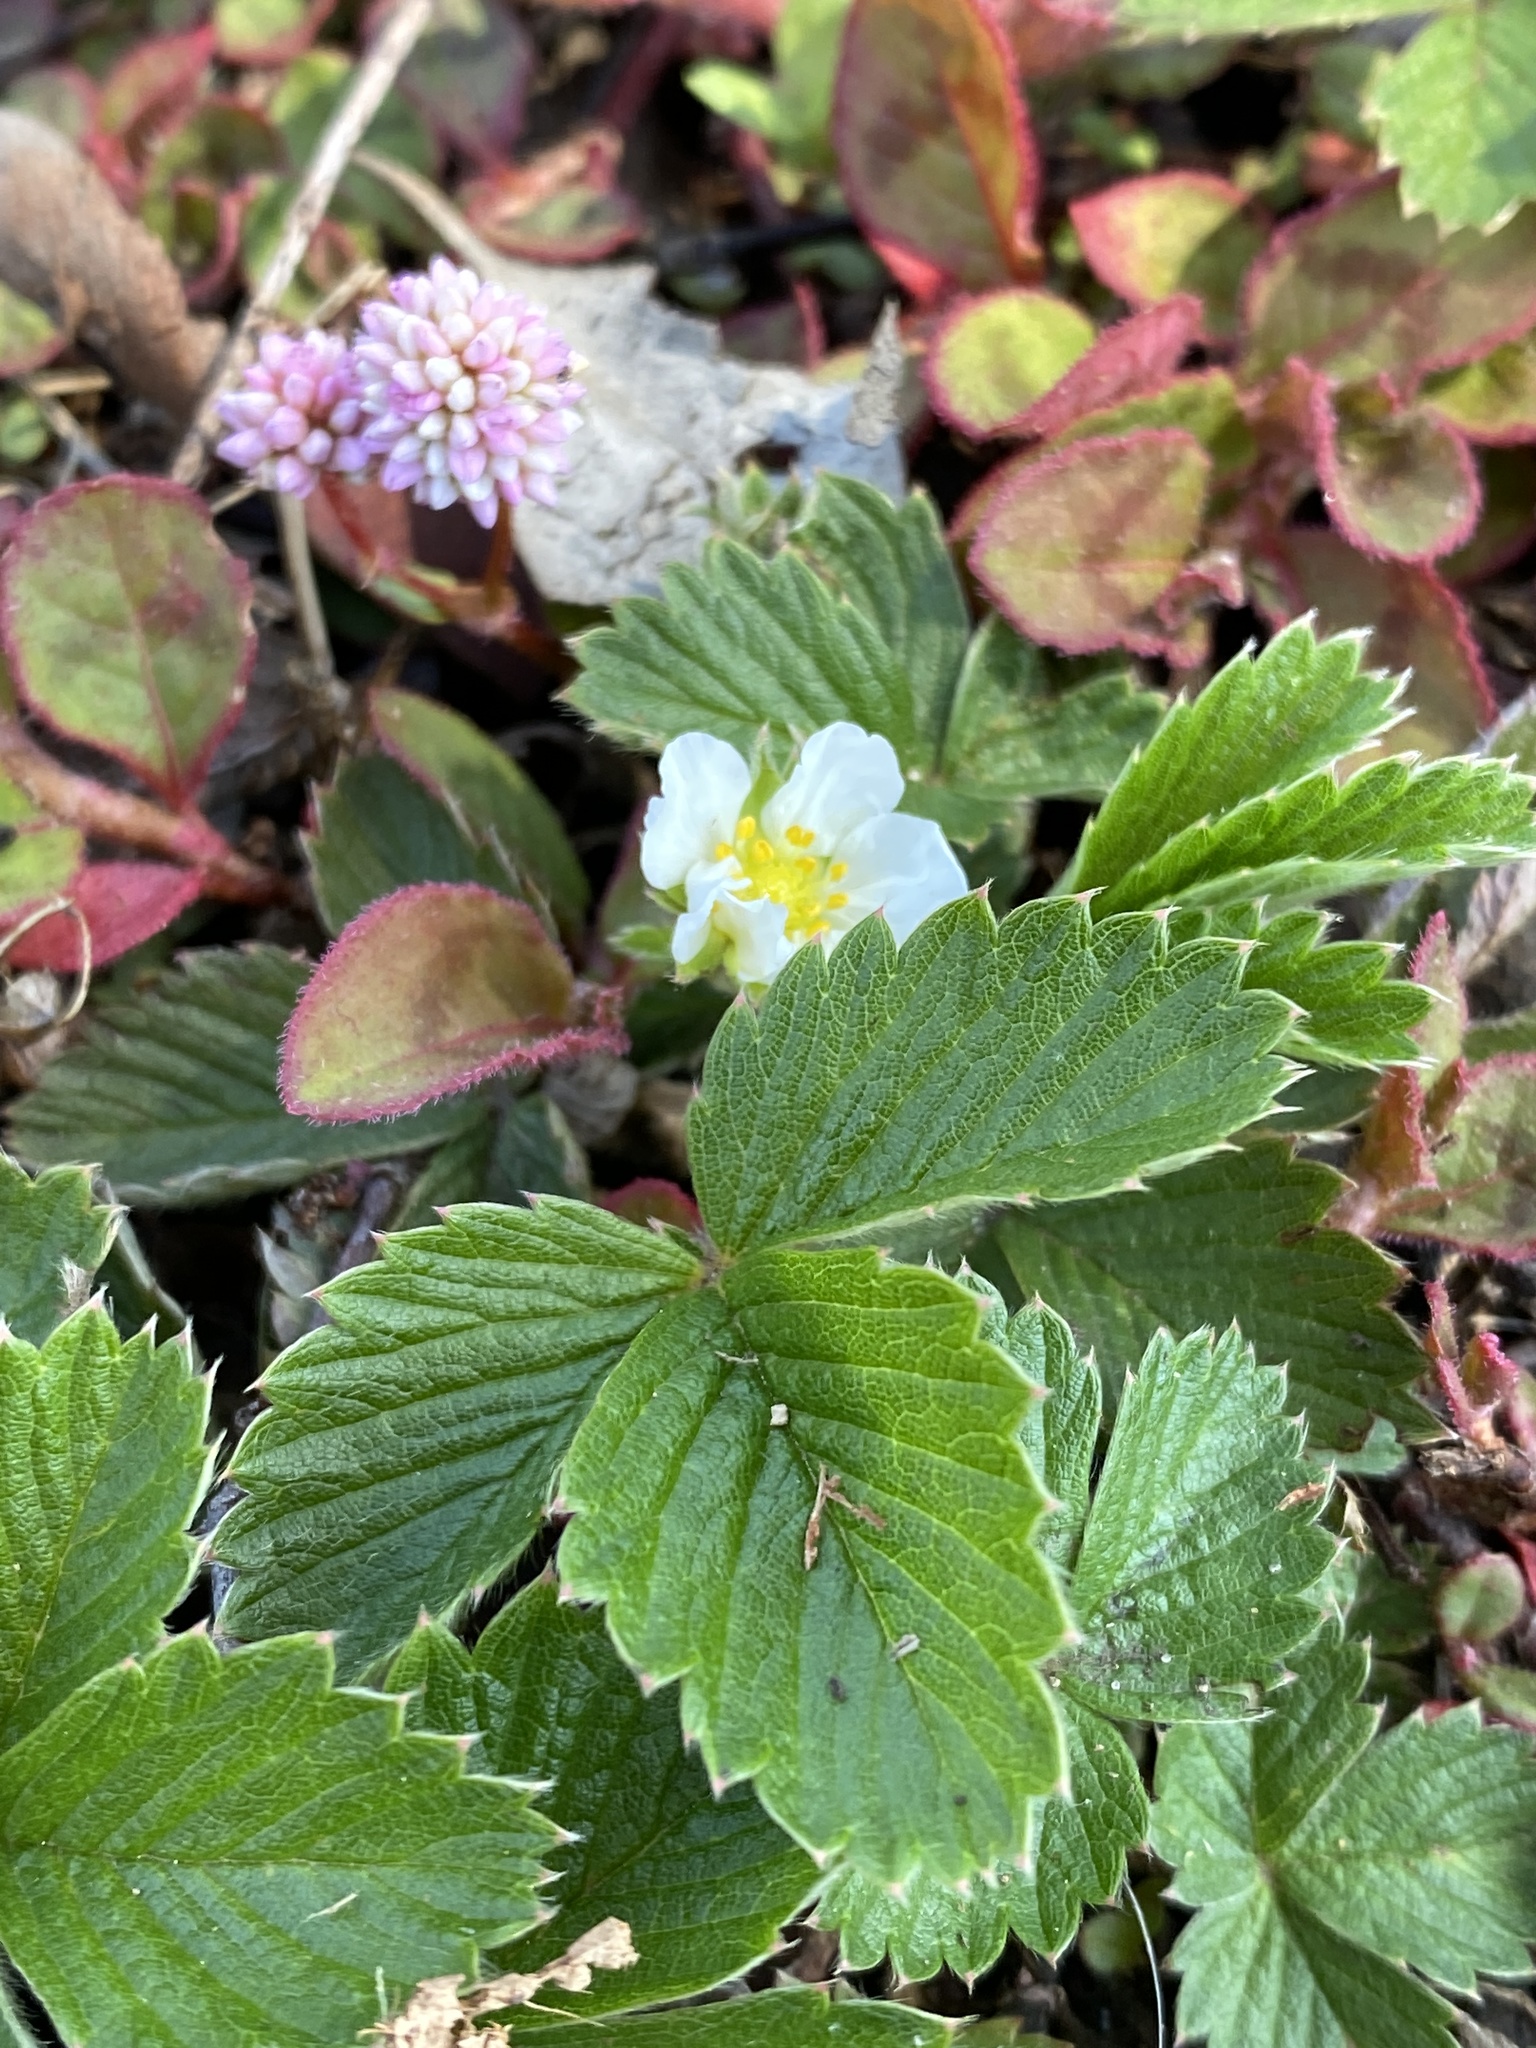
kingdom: Plantae
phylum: Tracheophyta
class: Magnoliopsida
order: Rosales
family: Rosaceae
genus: Fragaria
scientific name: Fragaria vesca
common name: Wild strawberry
